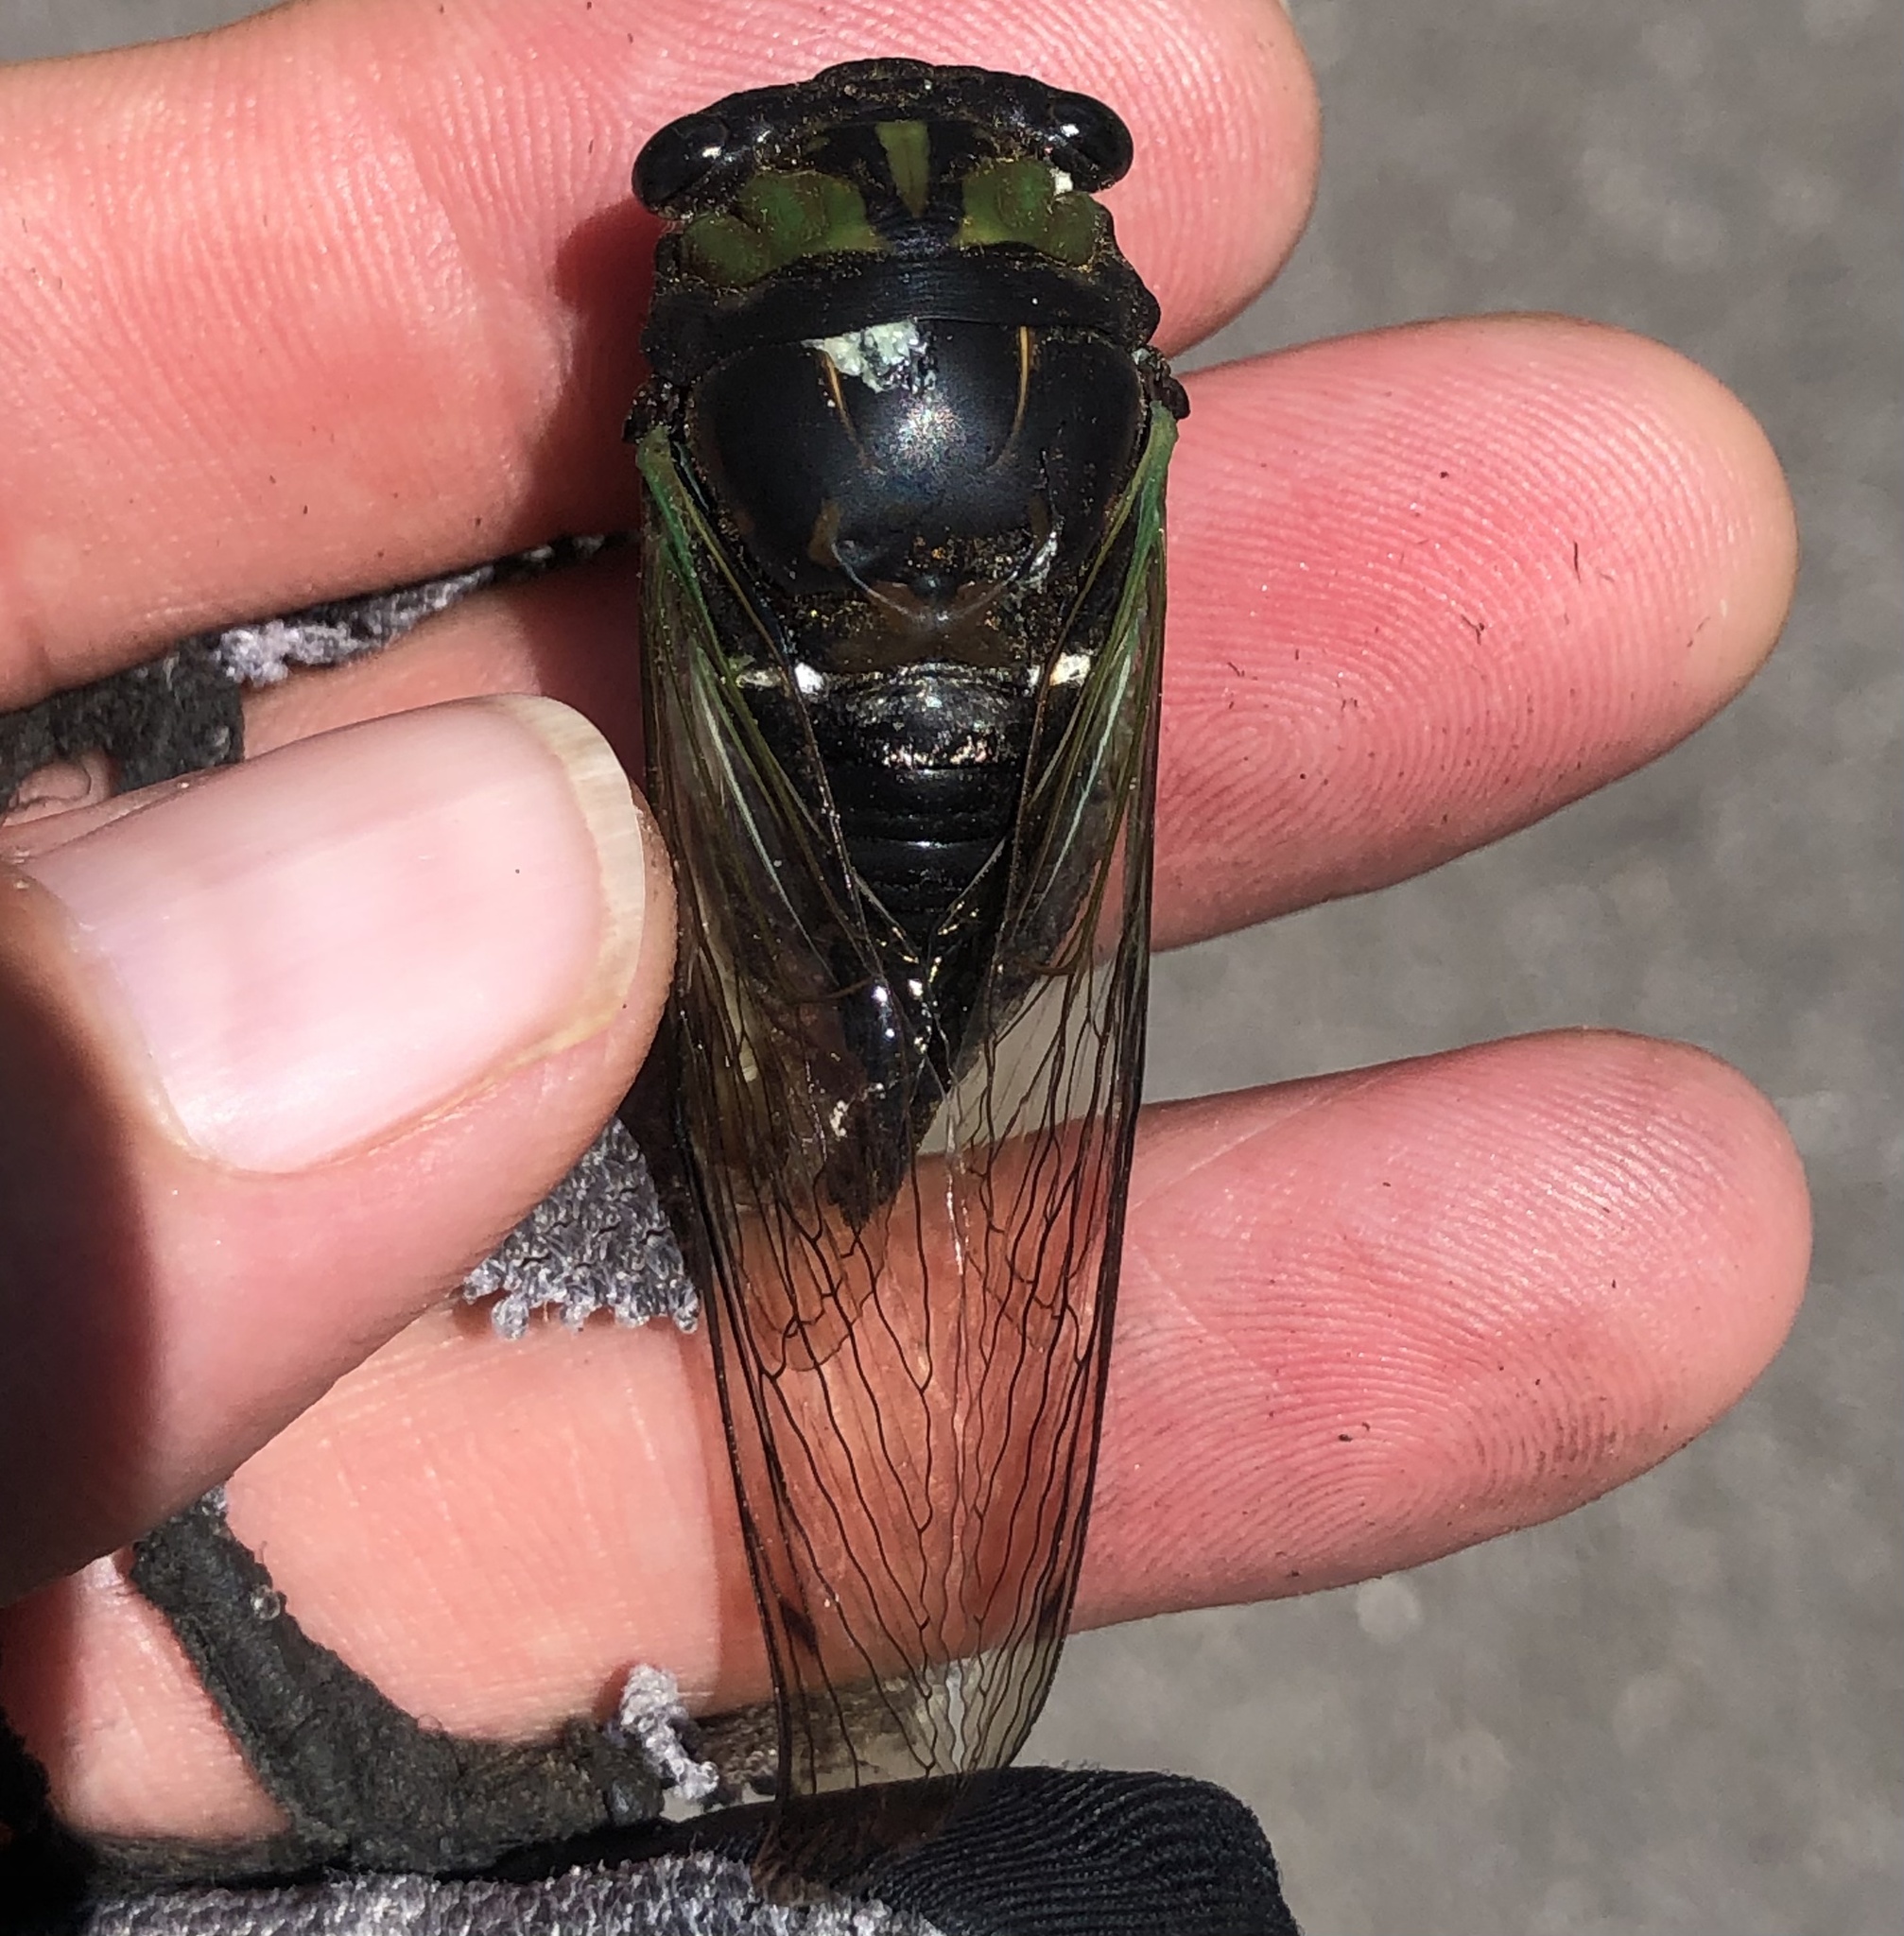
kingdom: Animalia
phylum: Arthropoda
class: Insecta
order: Hemiptera
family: Cicadidae
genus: Neotibicen
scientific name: Neotibicen tibicen
